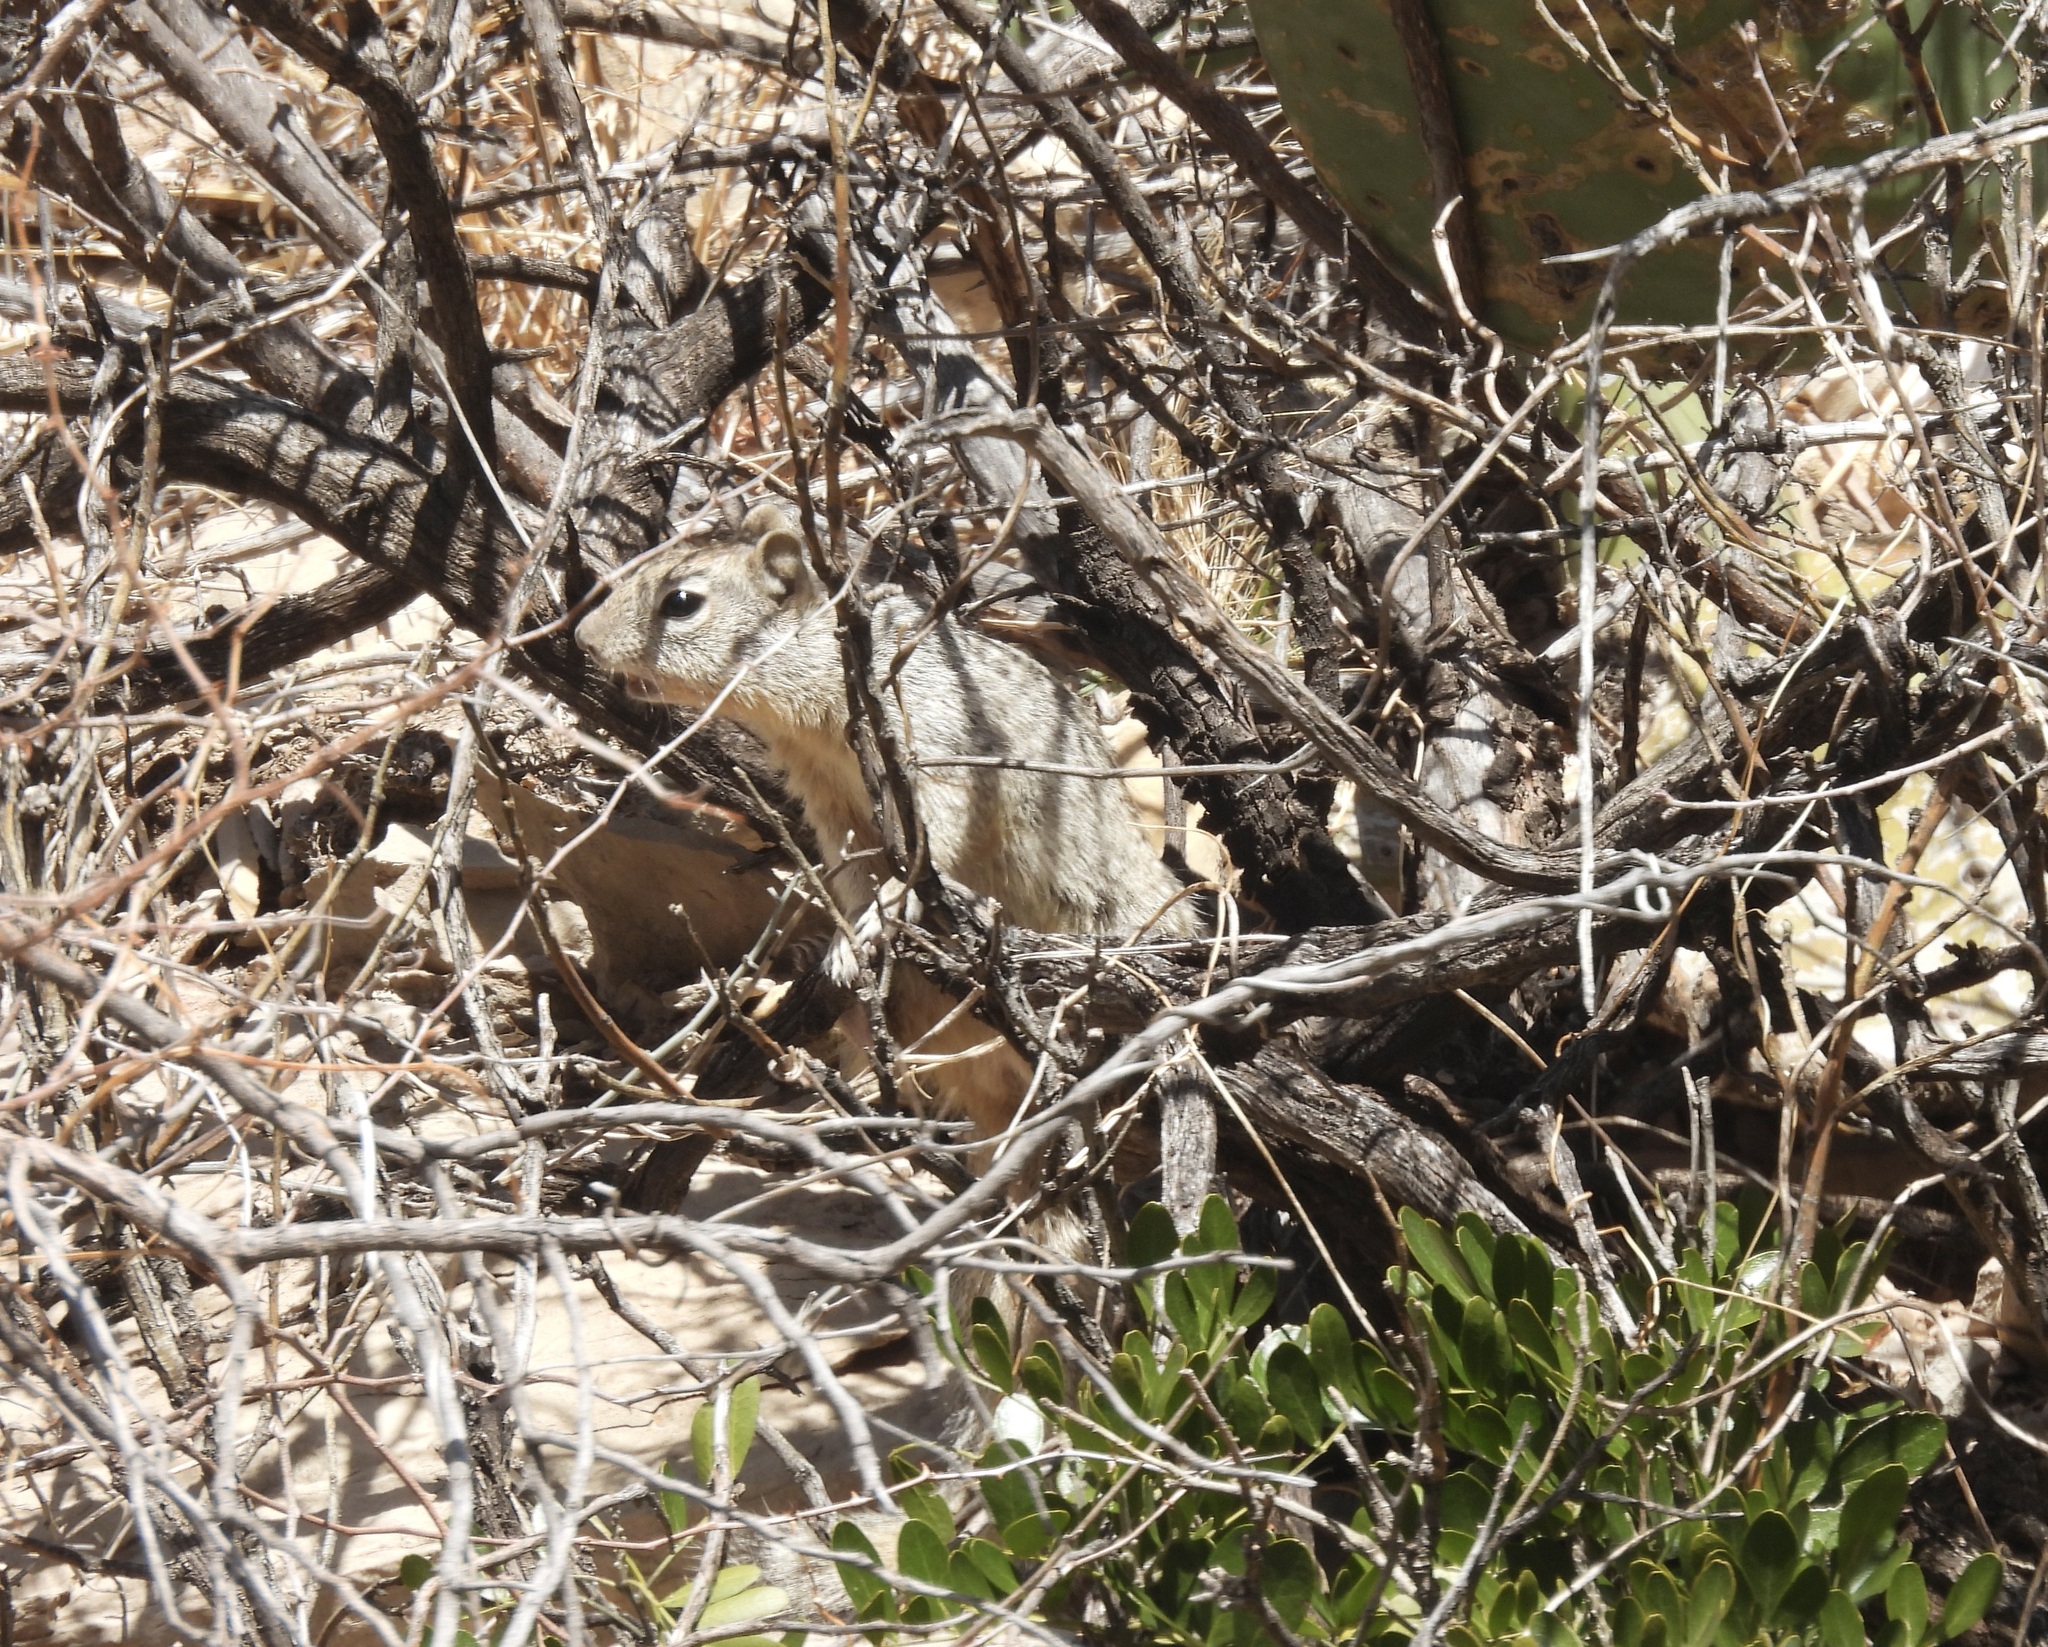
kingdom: Animalia
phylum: Chordata
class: Mammalia
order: Rodentia
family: Sciuridae
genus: Otospermophilus
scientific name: Otospermophilus variegatus
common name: Rock squirrel
